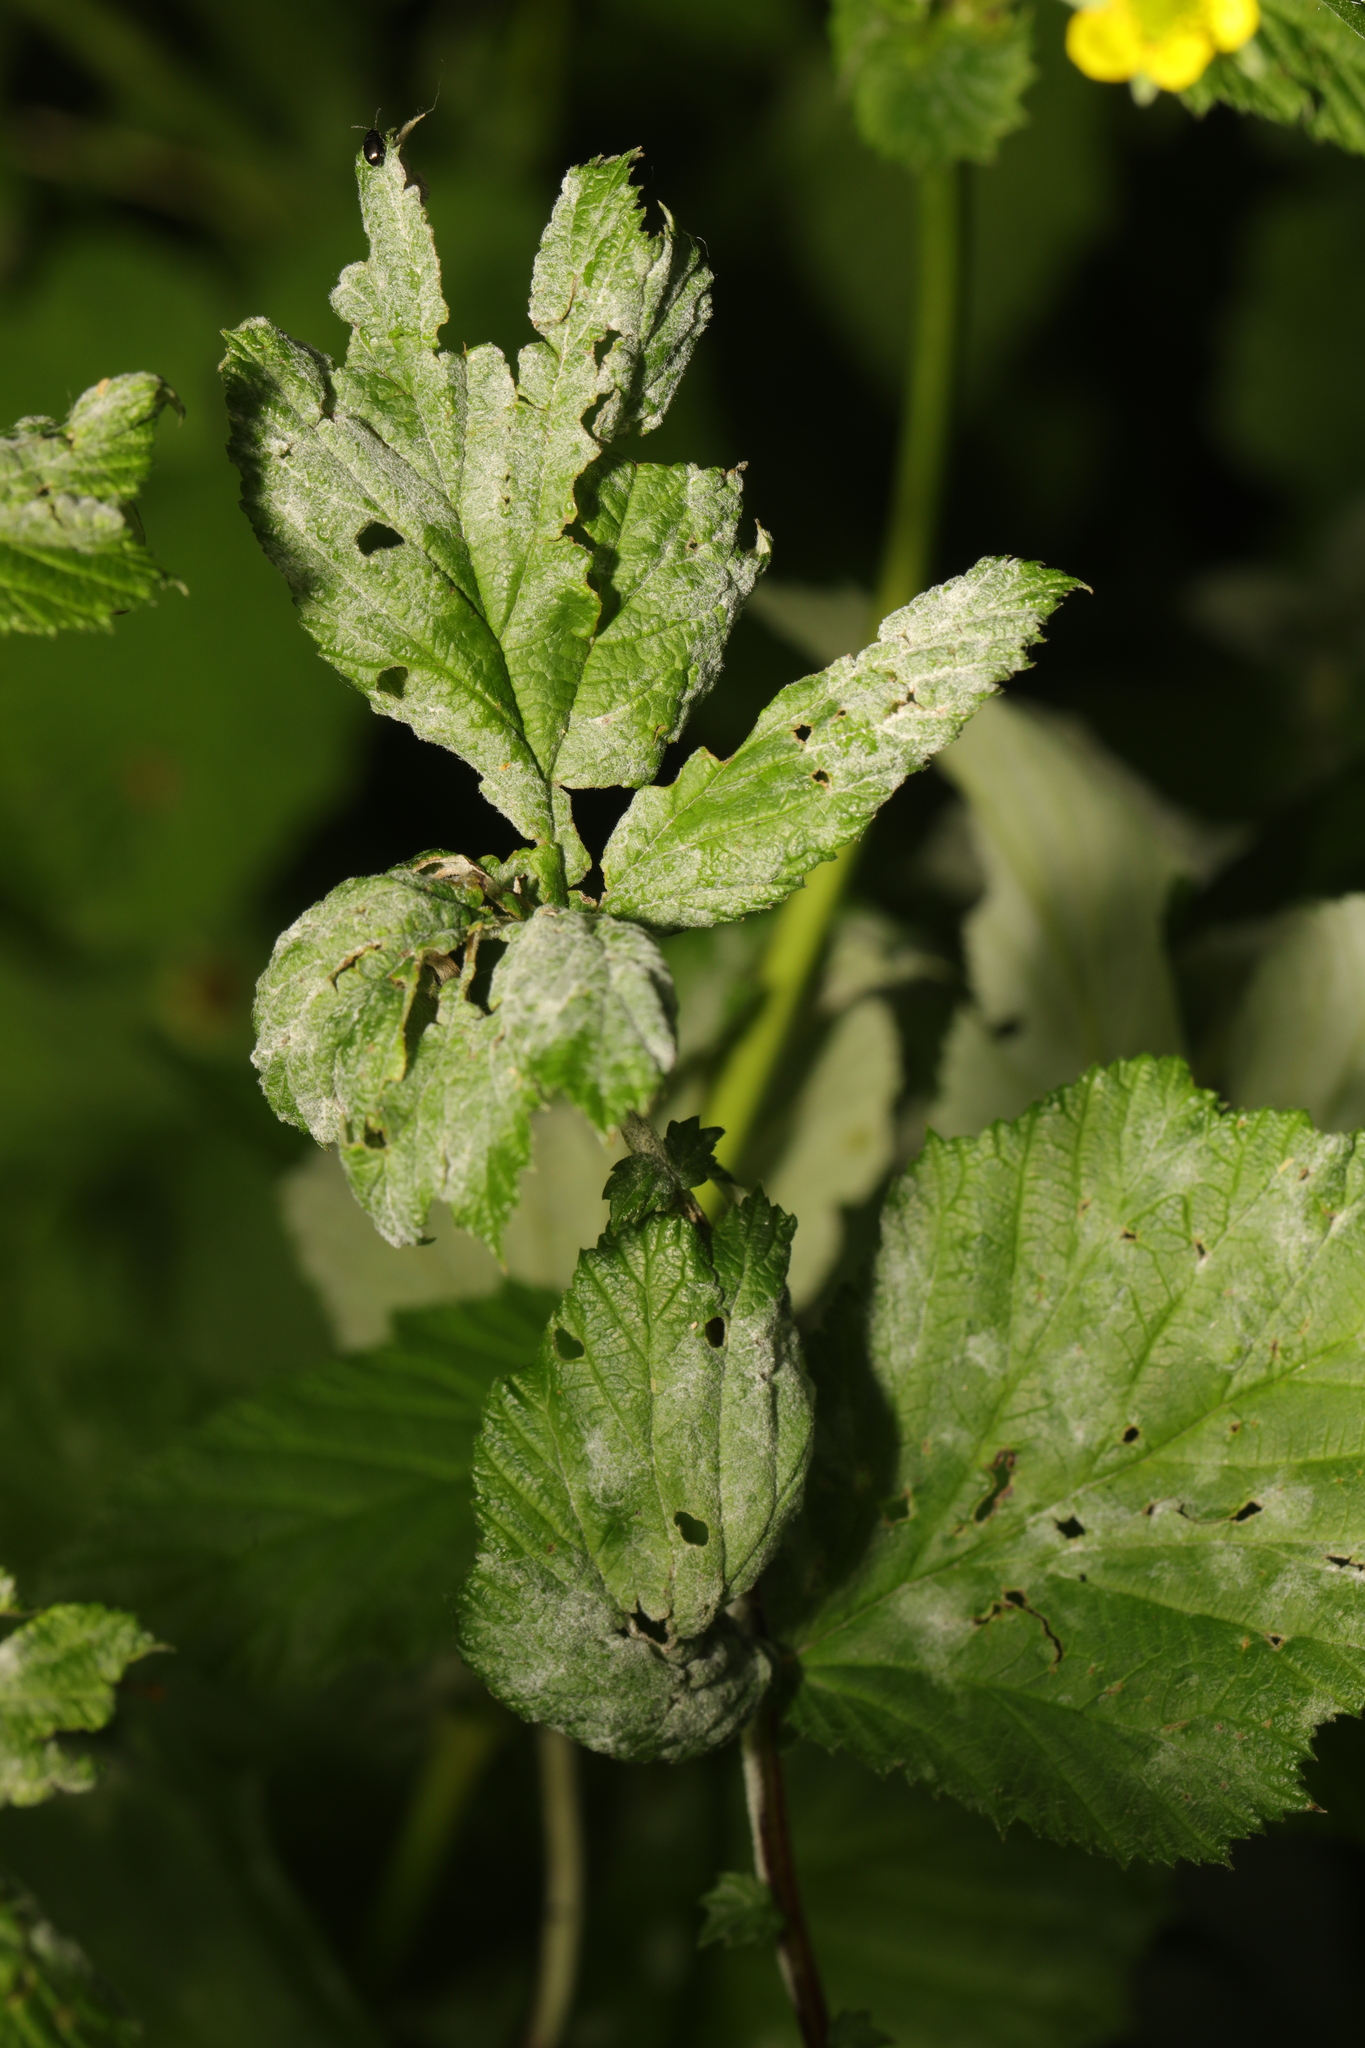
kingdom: Fungi
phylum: Ascomycota
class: Leotiomycetes
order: Helotiales
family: Erysiphaceae
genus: Podosphaera
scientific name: Podosphaera aphanis
